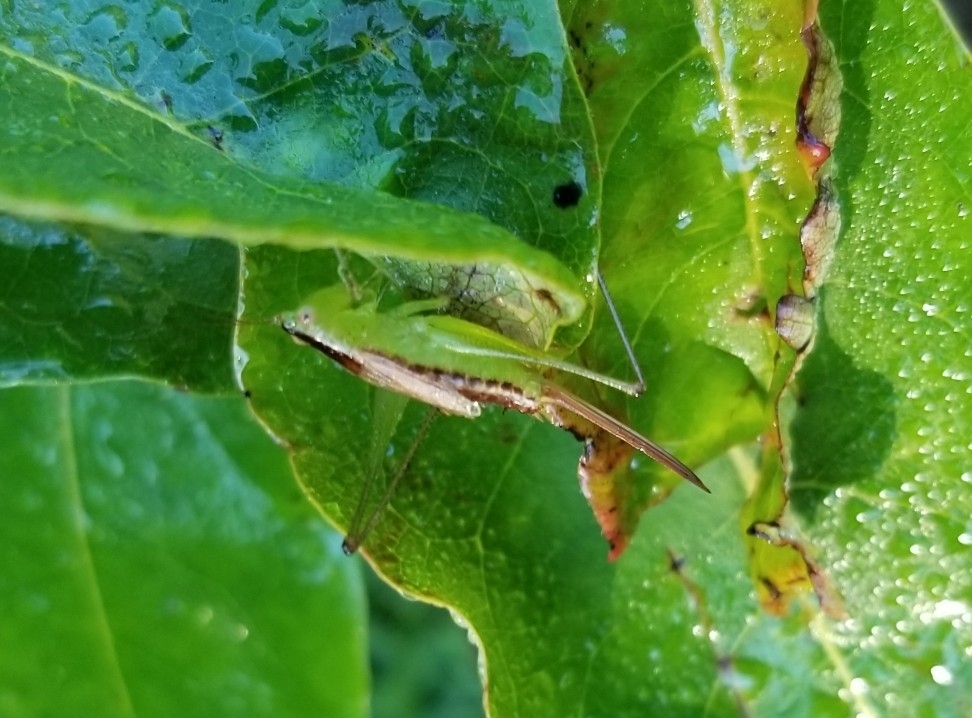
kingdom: Animalia
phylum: Arthropoda
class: Insecta
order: Orthoptera
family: Tettigoniidae
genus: Conocephalus
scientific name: Conocephalus brevipennis
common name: Short-winged meadow katydid
